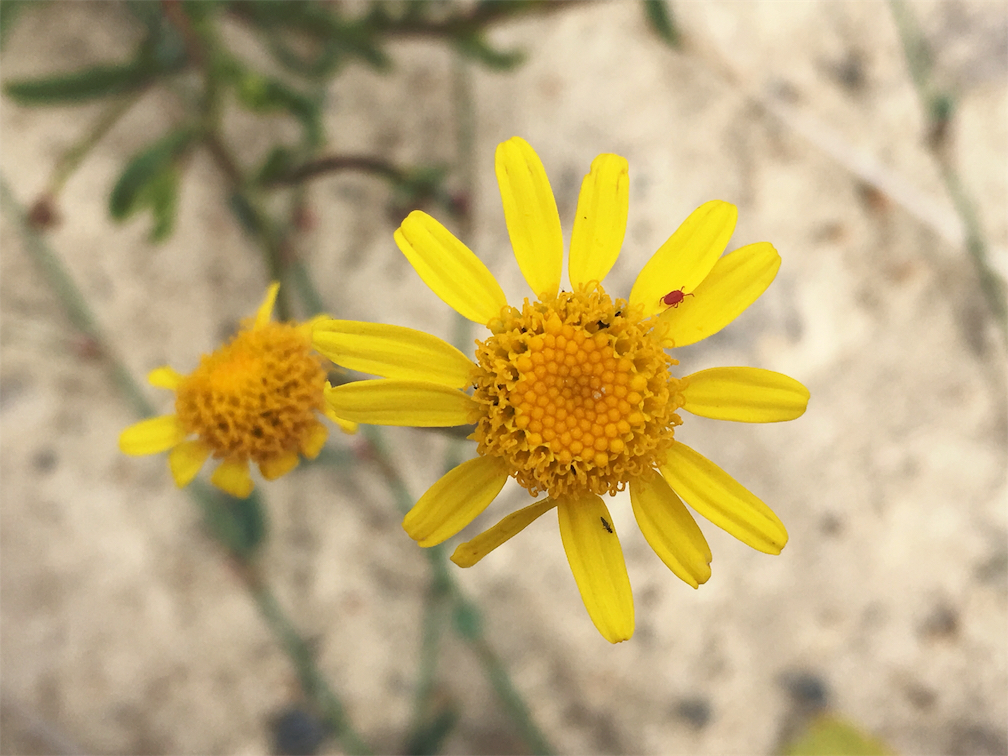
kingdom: Plantae
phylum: Tracheophyta
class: Magnoliopsida
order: Asterales
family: Asteraceae
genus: Senecio
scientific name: Senecio skirrhodon
